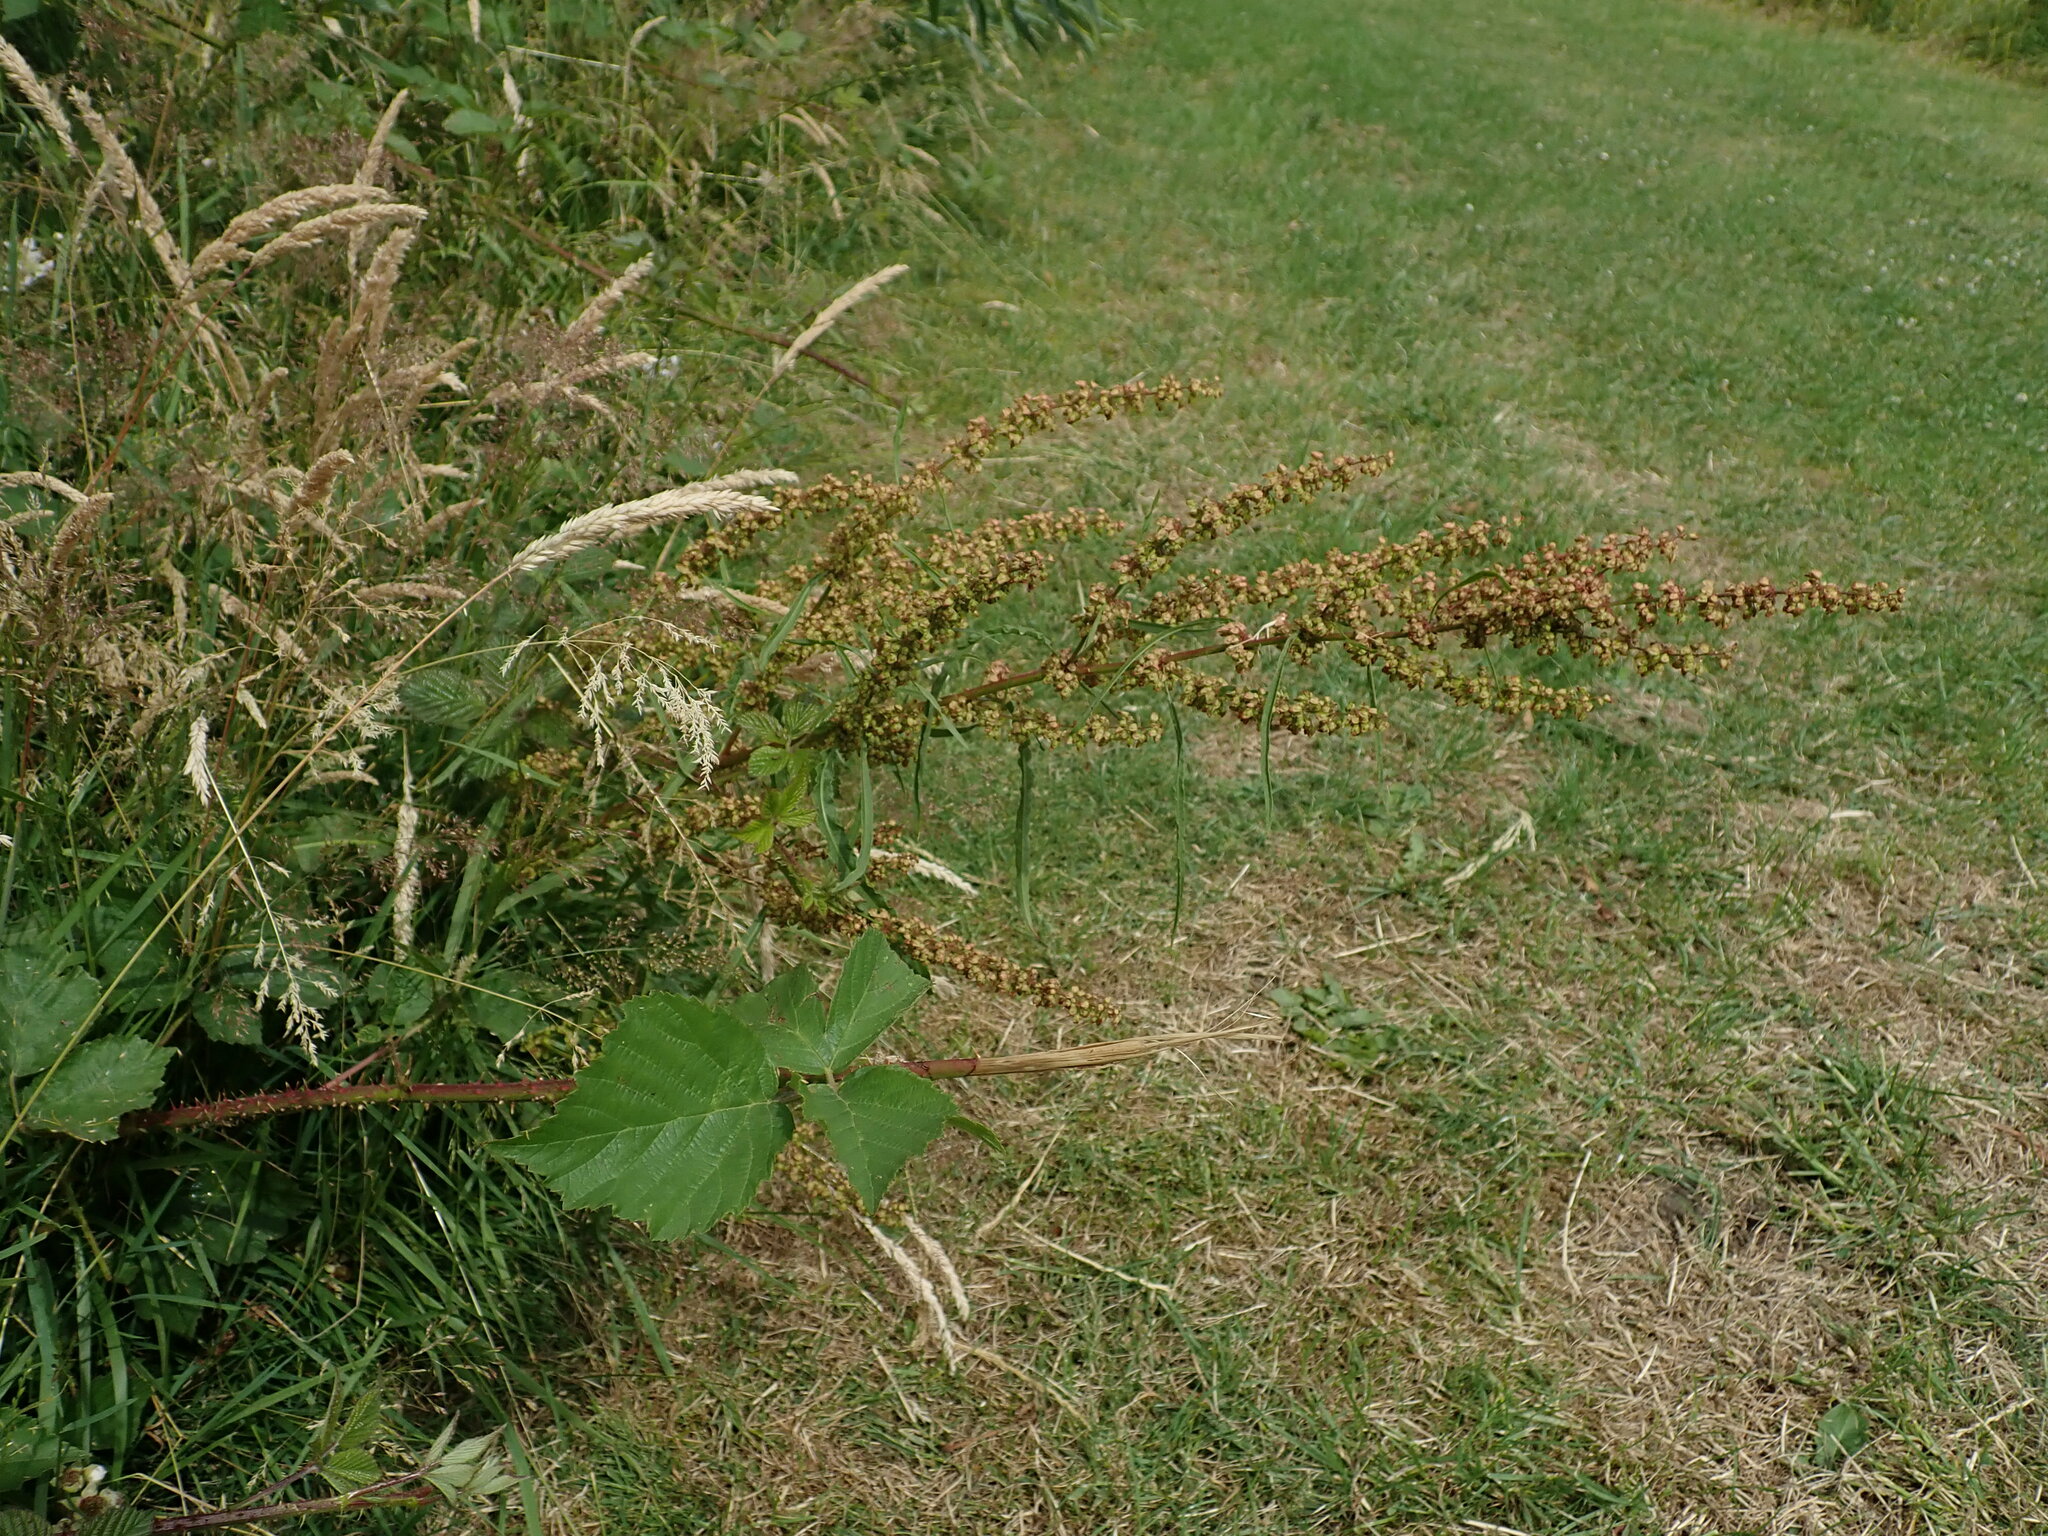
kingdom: Plantae
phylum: Tracheophyta
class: Magnoliopsida
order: Caryophyllales
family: Polygonaceae
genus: Rumex
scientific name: Rumex crispus
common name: Curled dock
